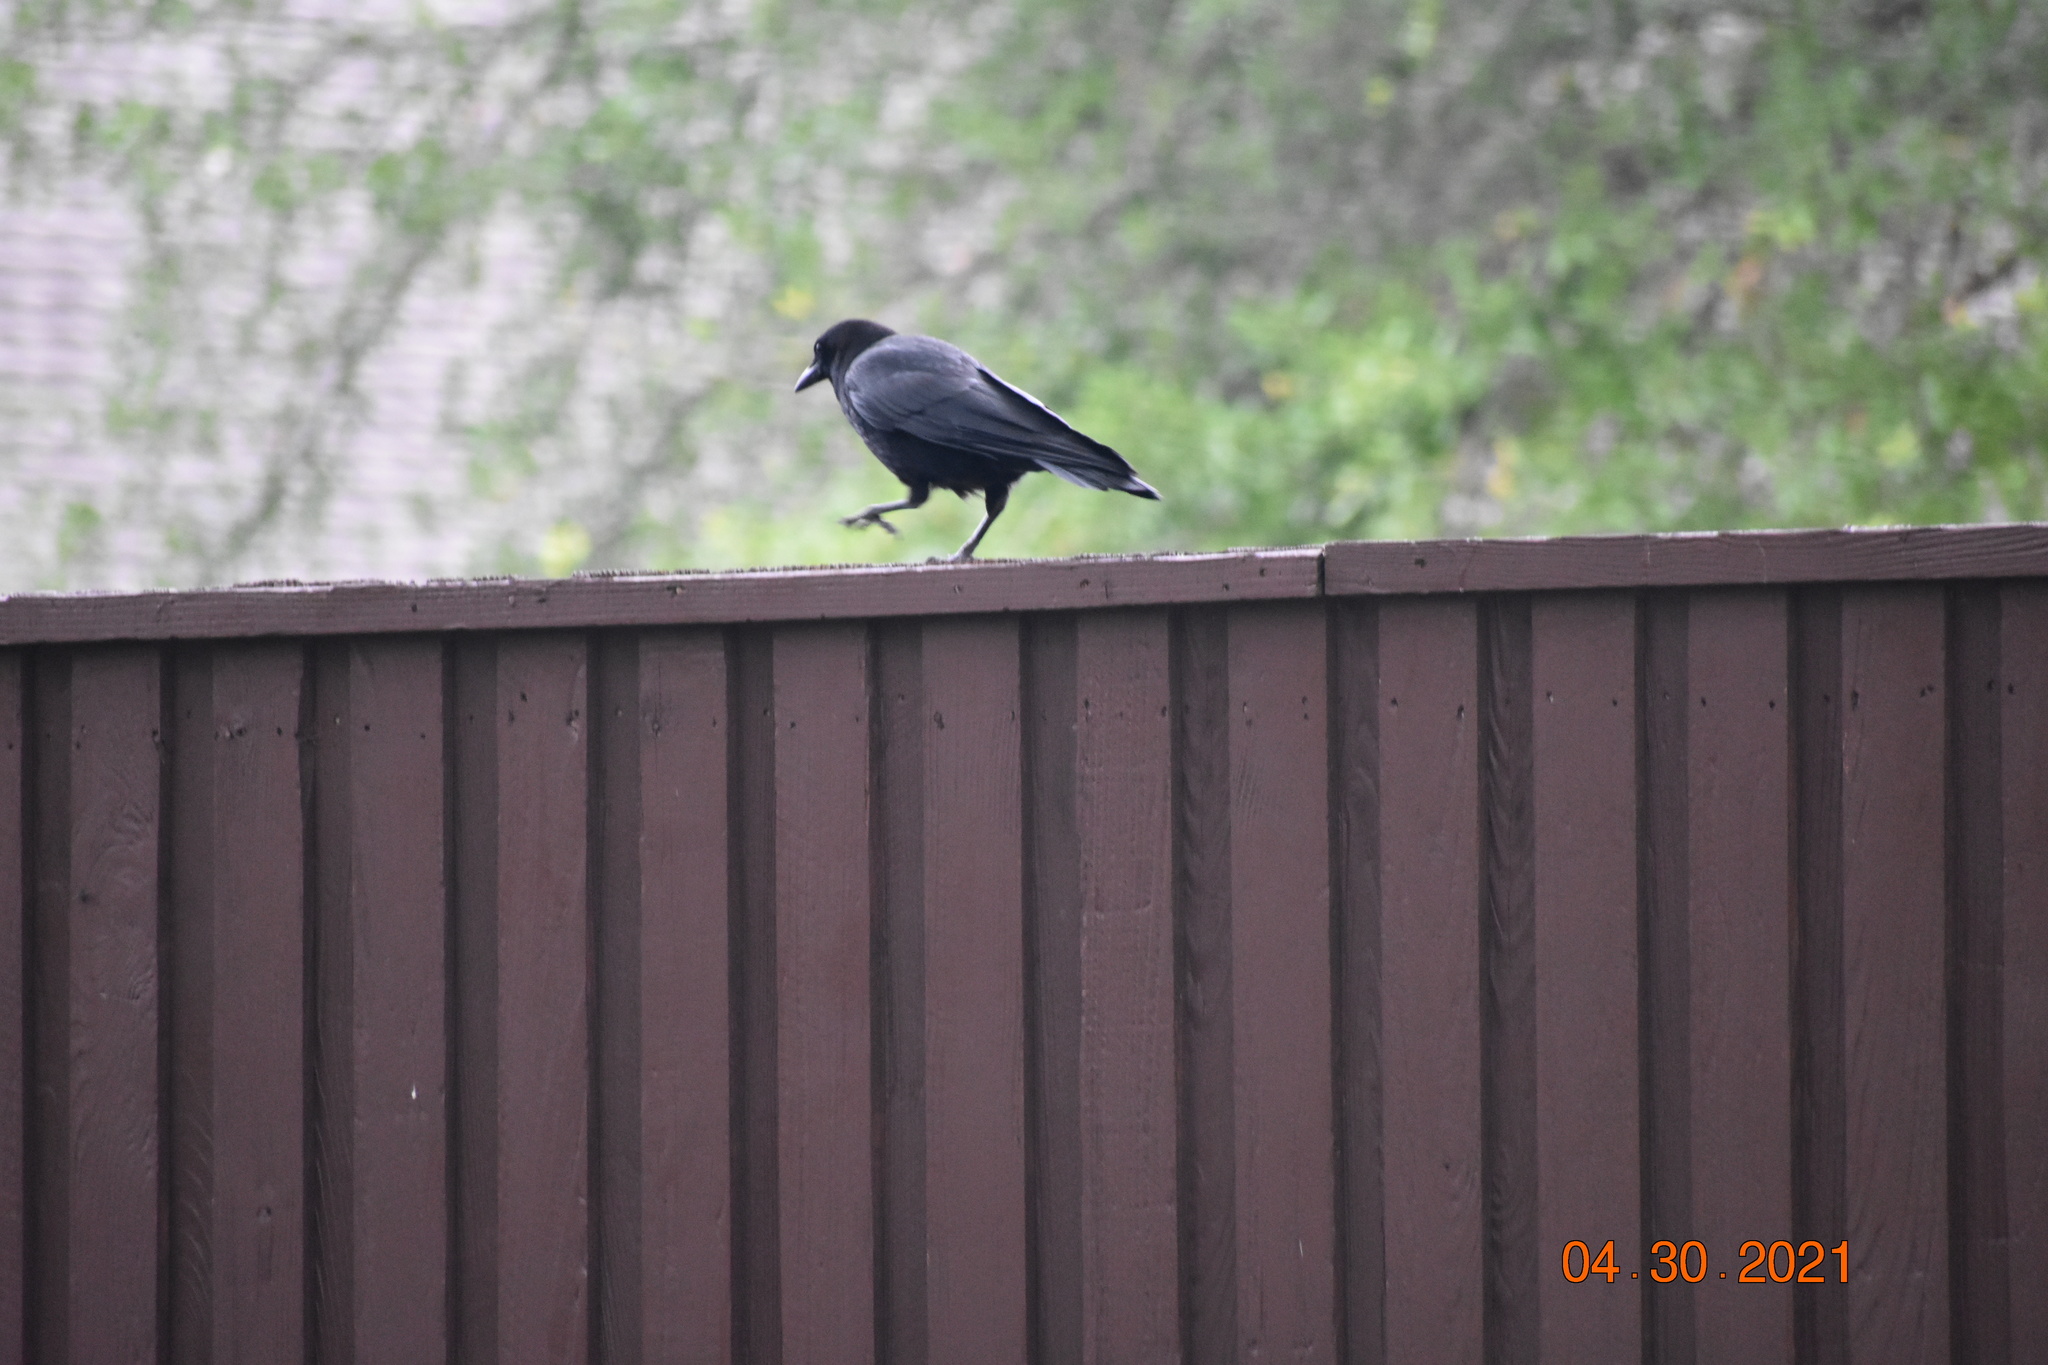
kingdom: Animalia
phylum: Chordata
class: Aves
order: Passeriformes
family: Corvidae
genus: Corvus
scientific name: Corvus brachyrhynchos
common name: American crow
